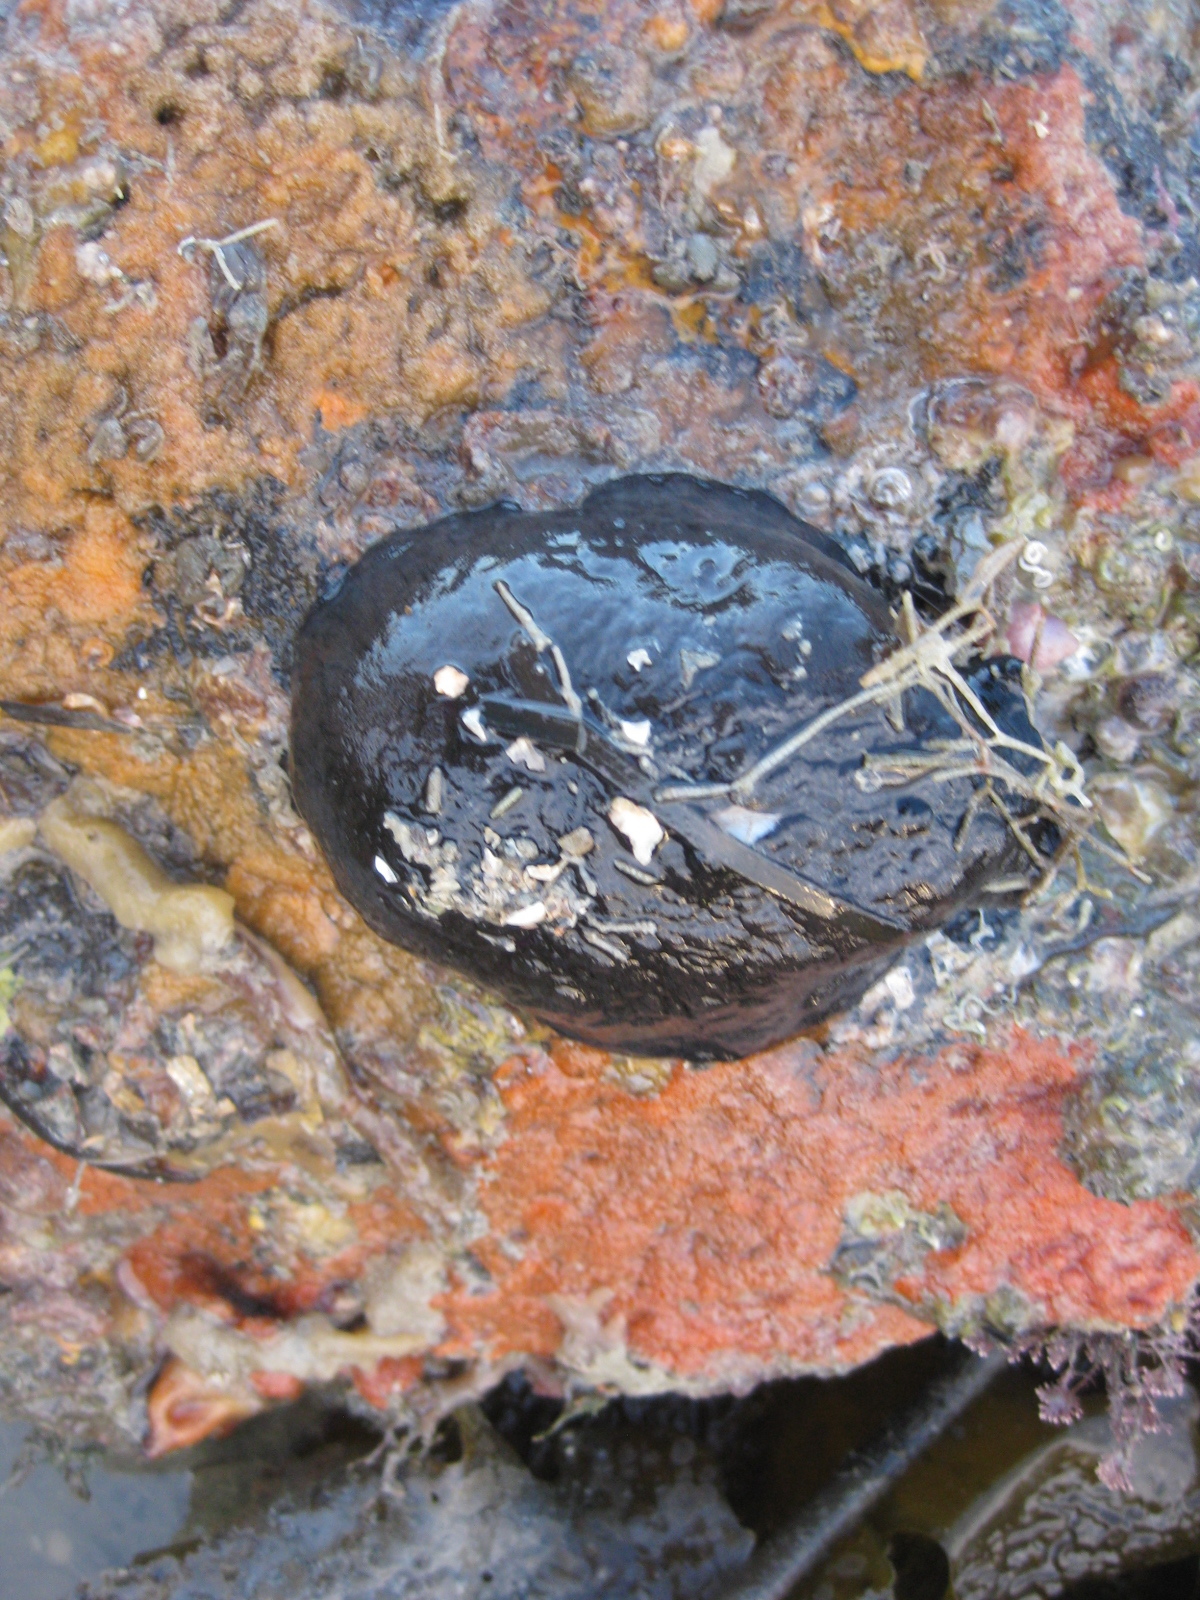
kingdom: Animalia
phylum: Mollusca
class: Gastropoda
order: Lepetellida
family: Fissurellidae
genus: Scutus
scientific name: Scutus breviculus
